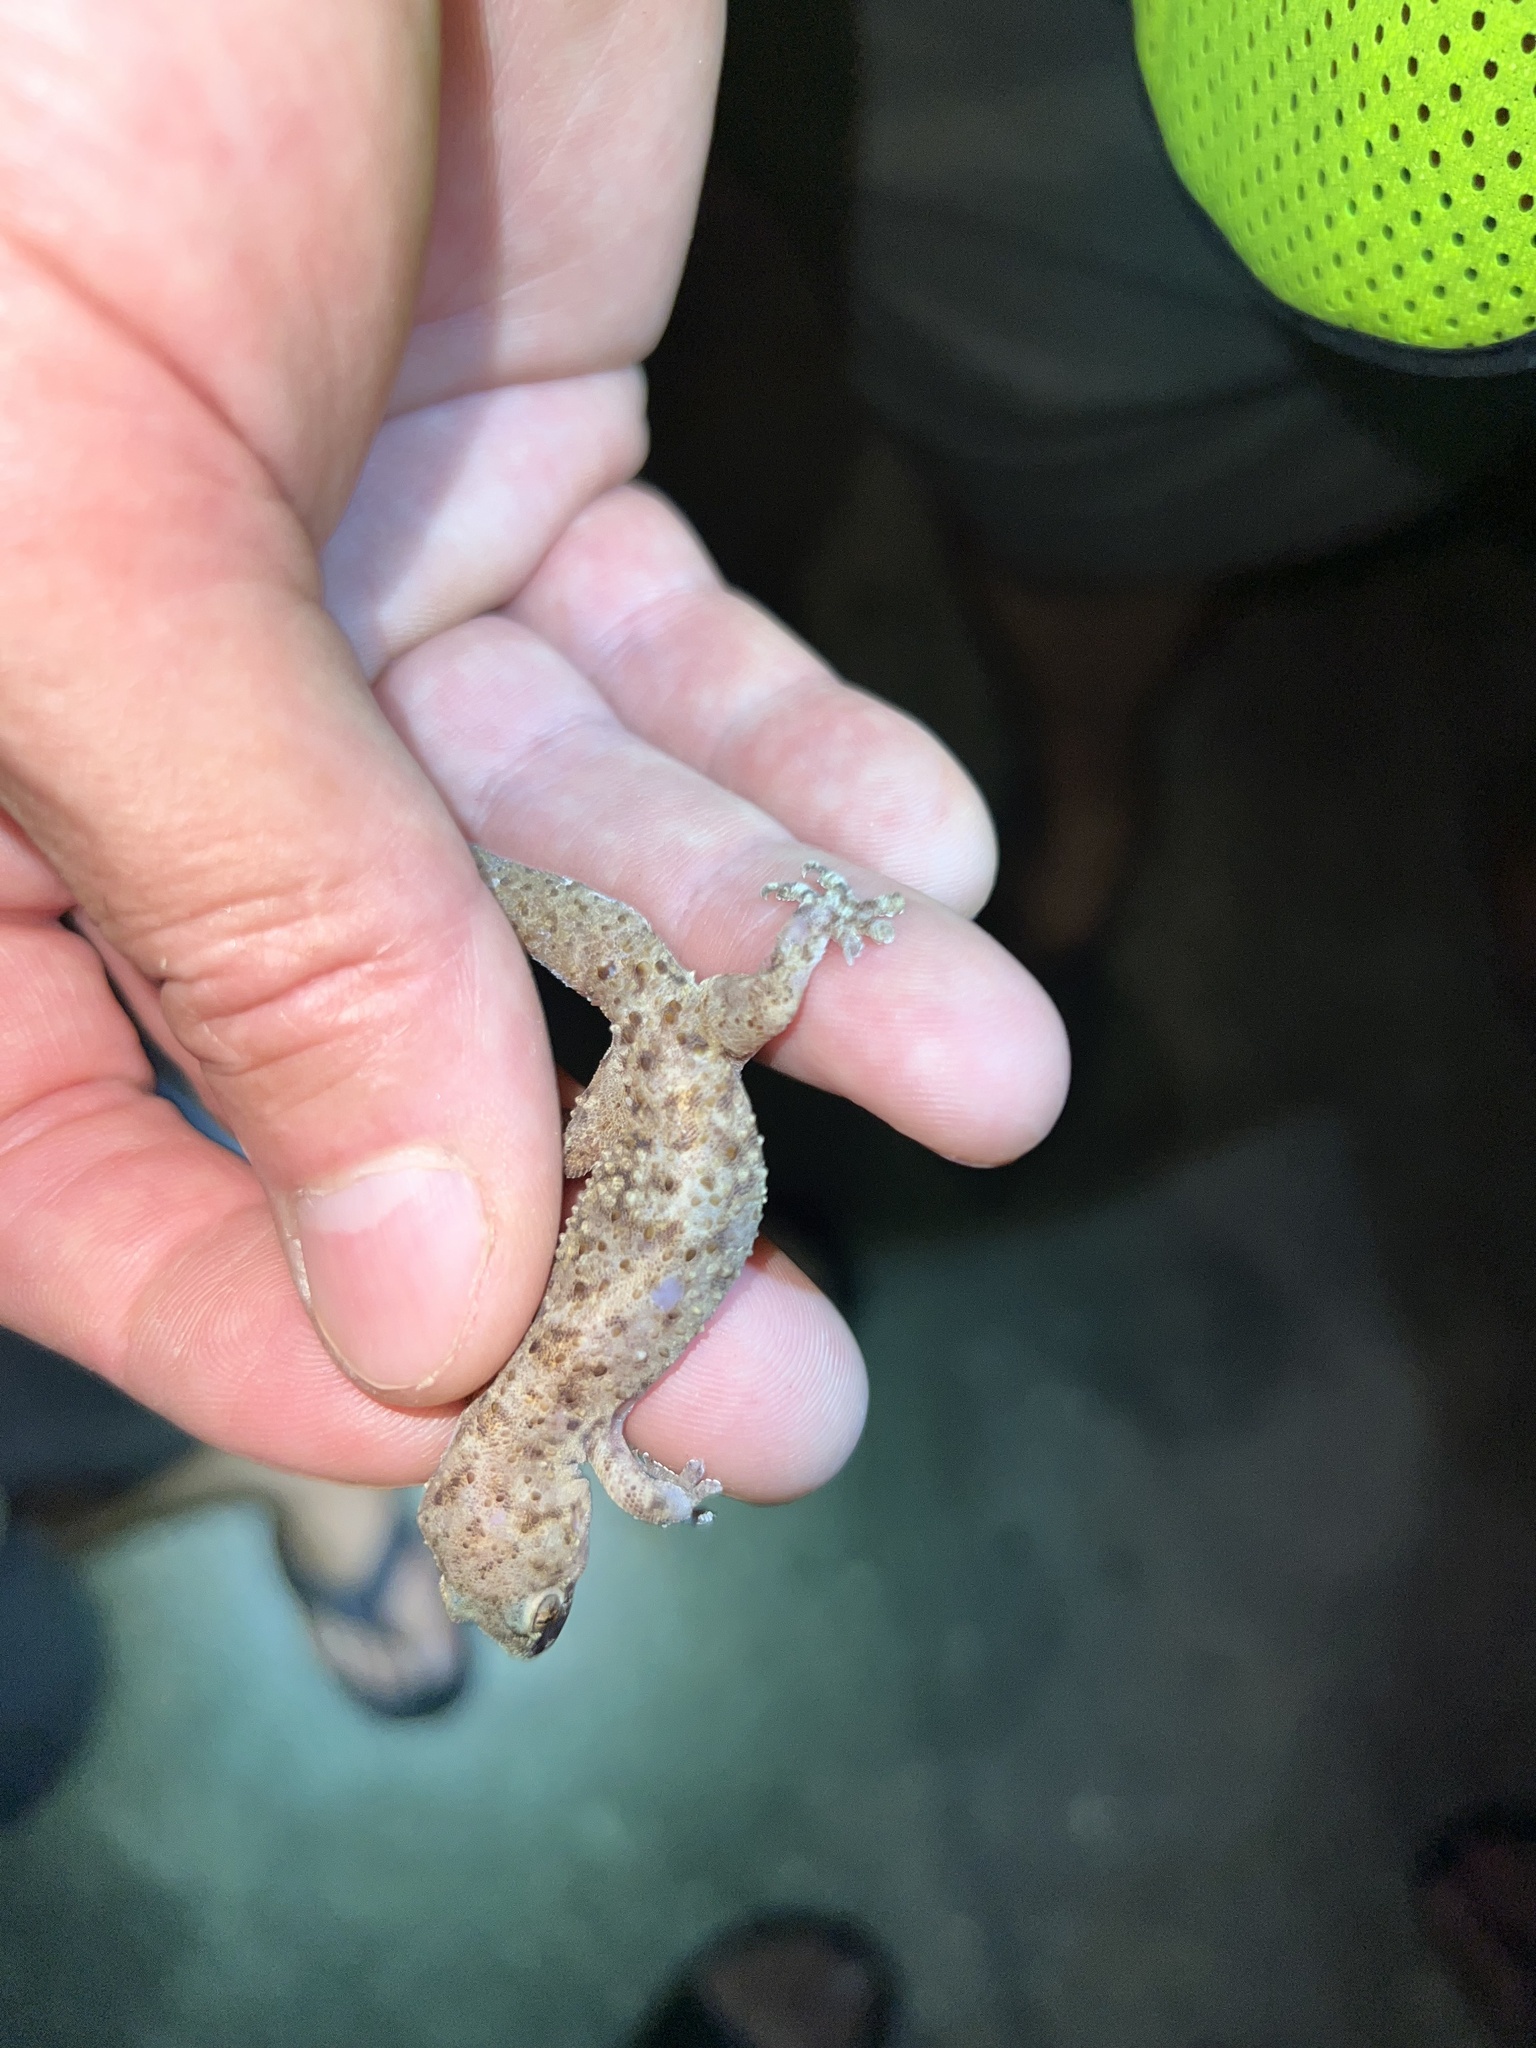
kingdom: Animalia
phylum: Chordata
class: Squamata
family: Gekkonidae
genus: Hemidactylus
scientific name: Hemidactylus turcicus
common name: Turkish gecko
